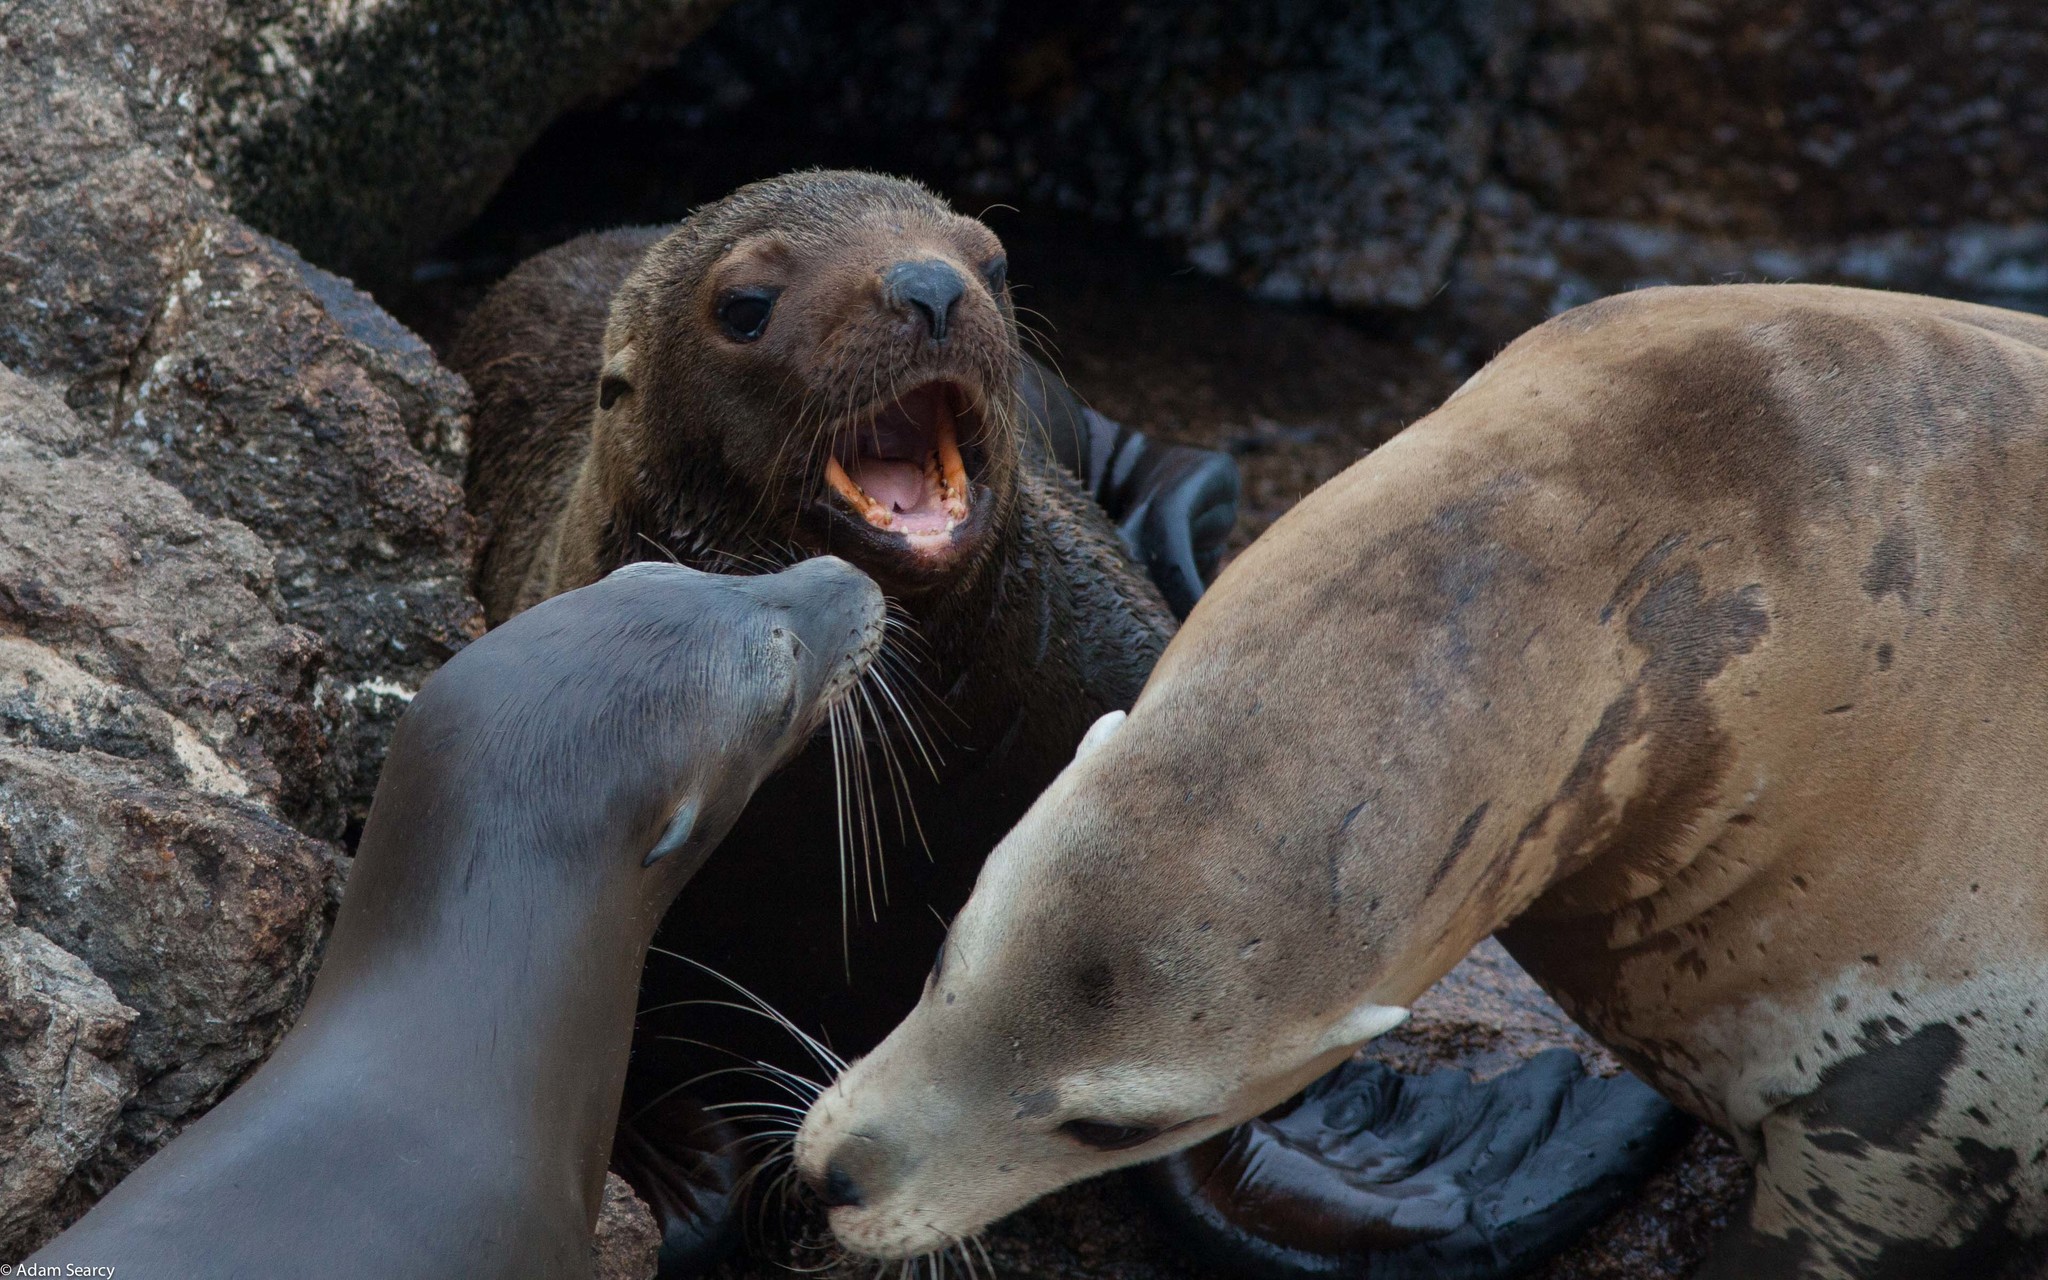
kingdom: Animalia
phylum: Chordata
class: Mammalia
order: Carnivora
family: Otariidae
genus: Zalophus
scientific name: Zalophus californianus
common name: California sea lion
